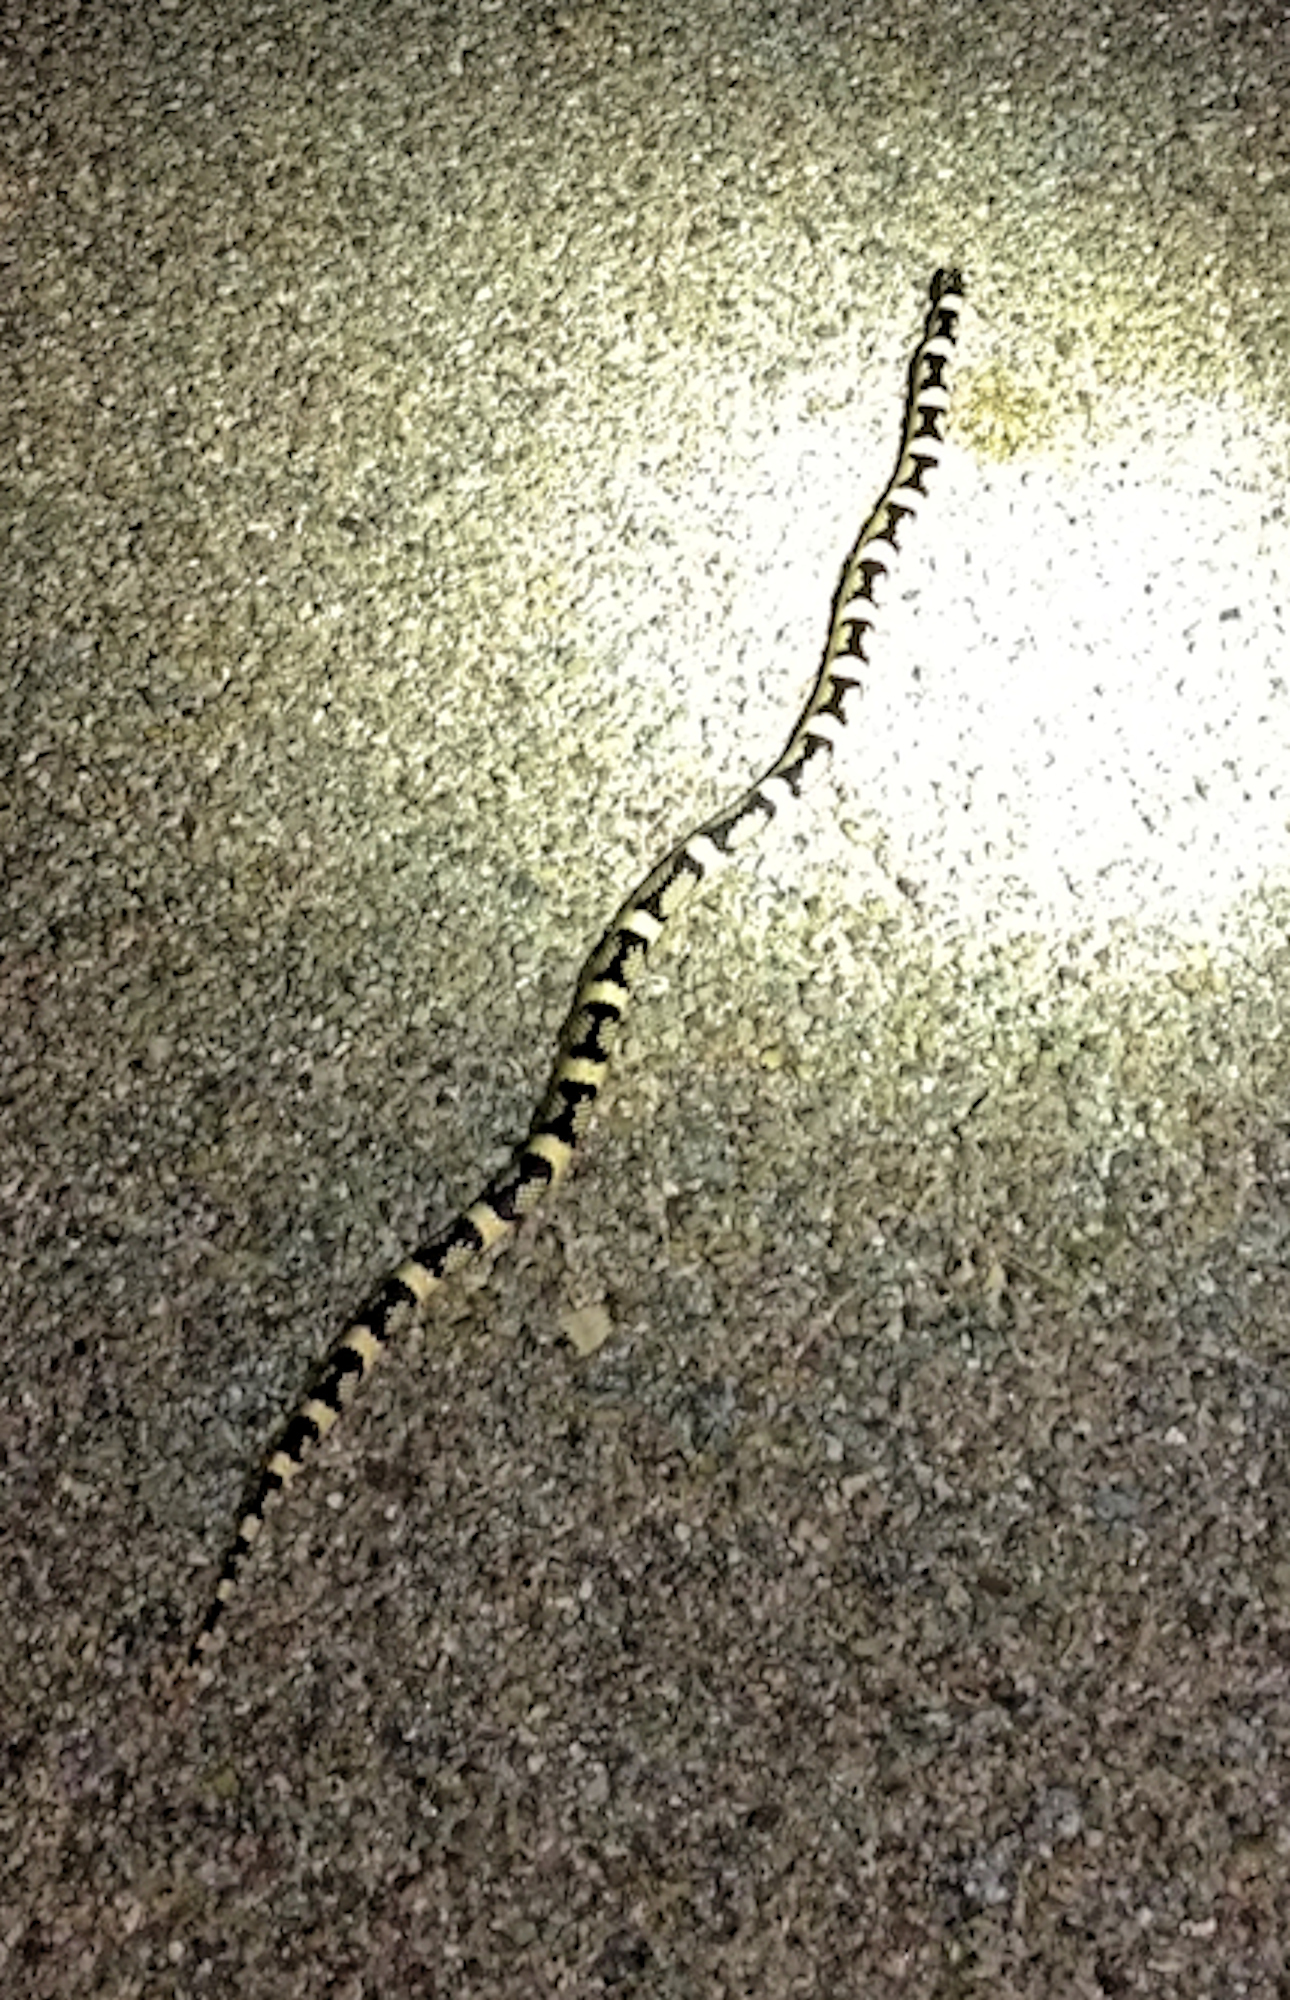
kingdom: Animalia
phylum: Chordata
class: Squamata
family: Colubridae
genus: Rhinocheilus
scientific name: Rhinocheilus lecontei
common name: Longnose snake
